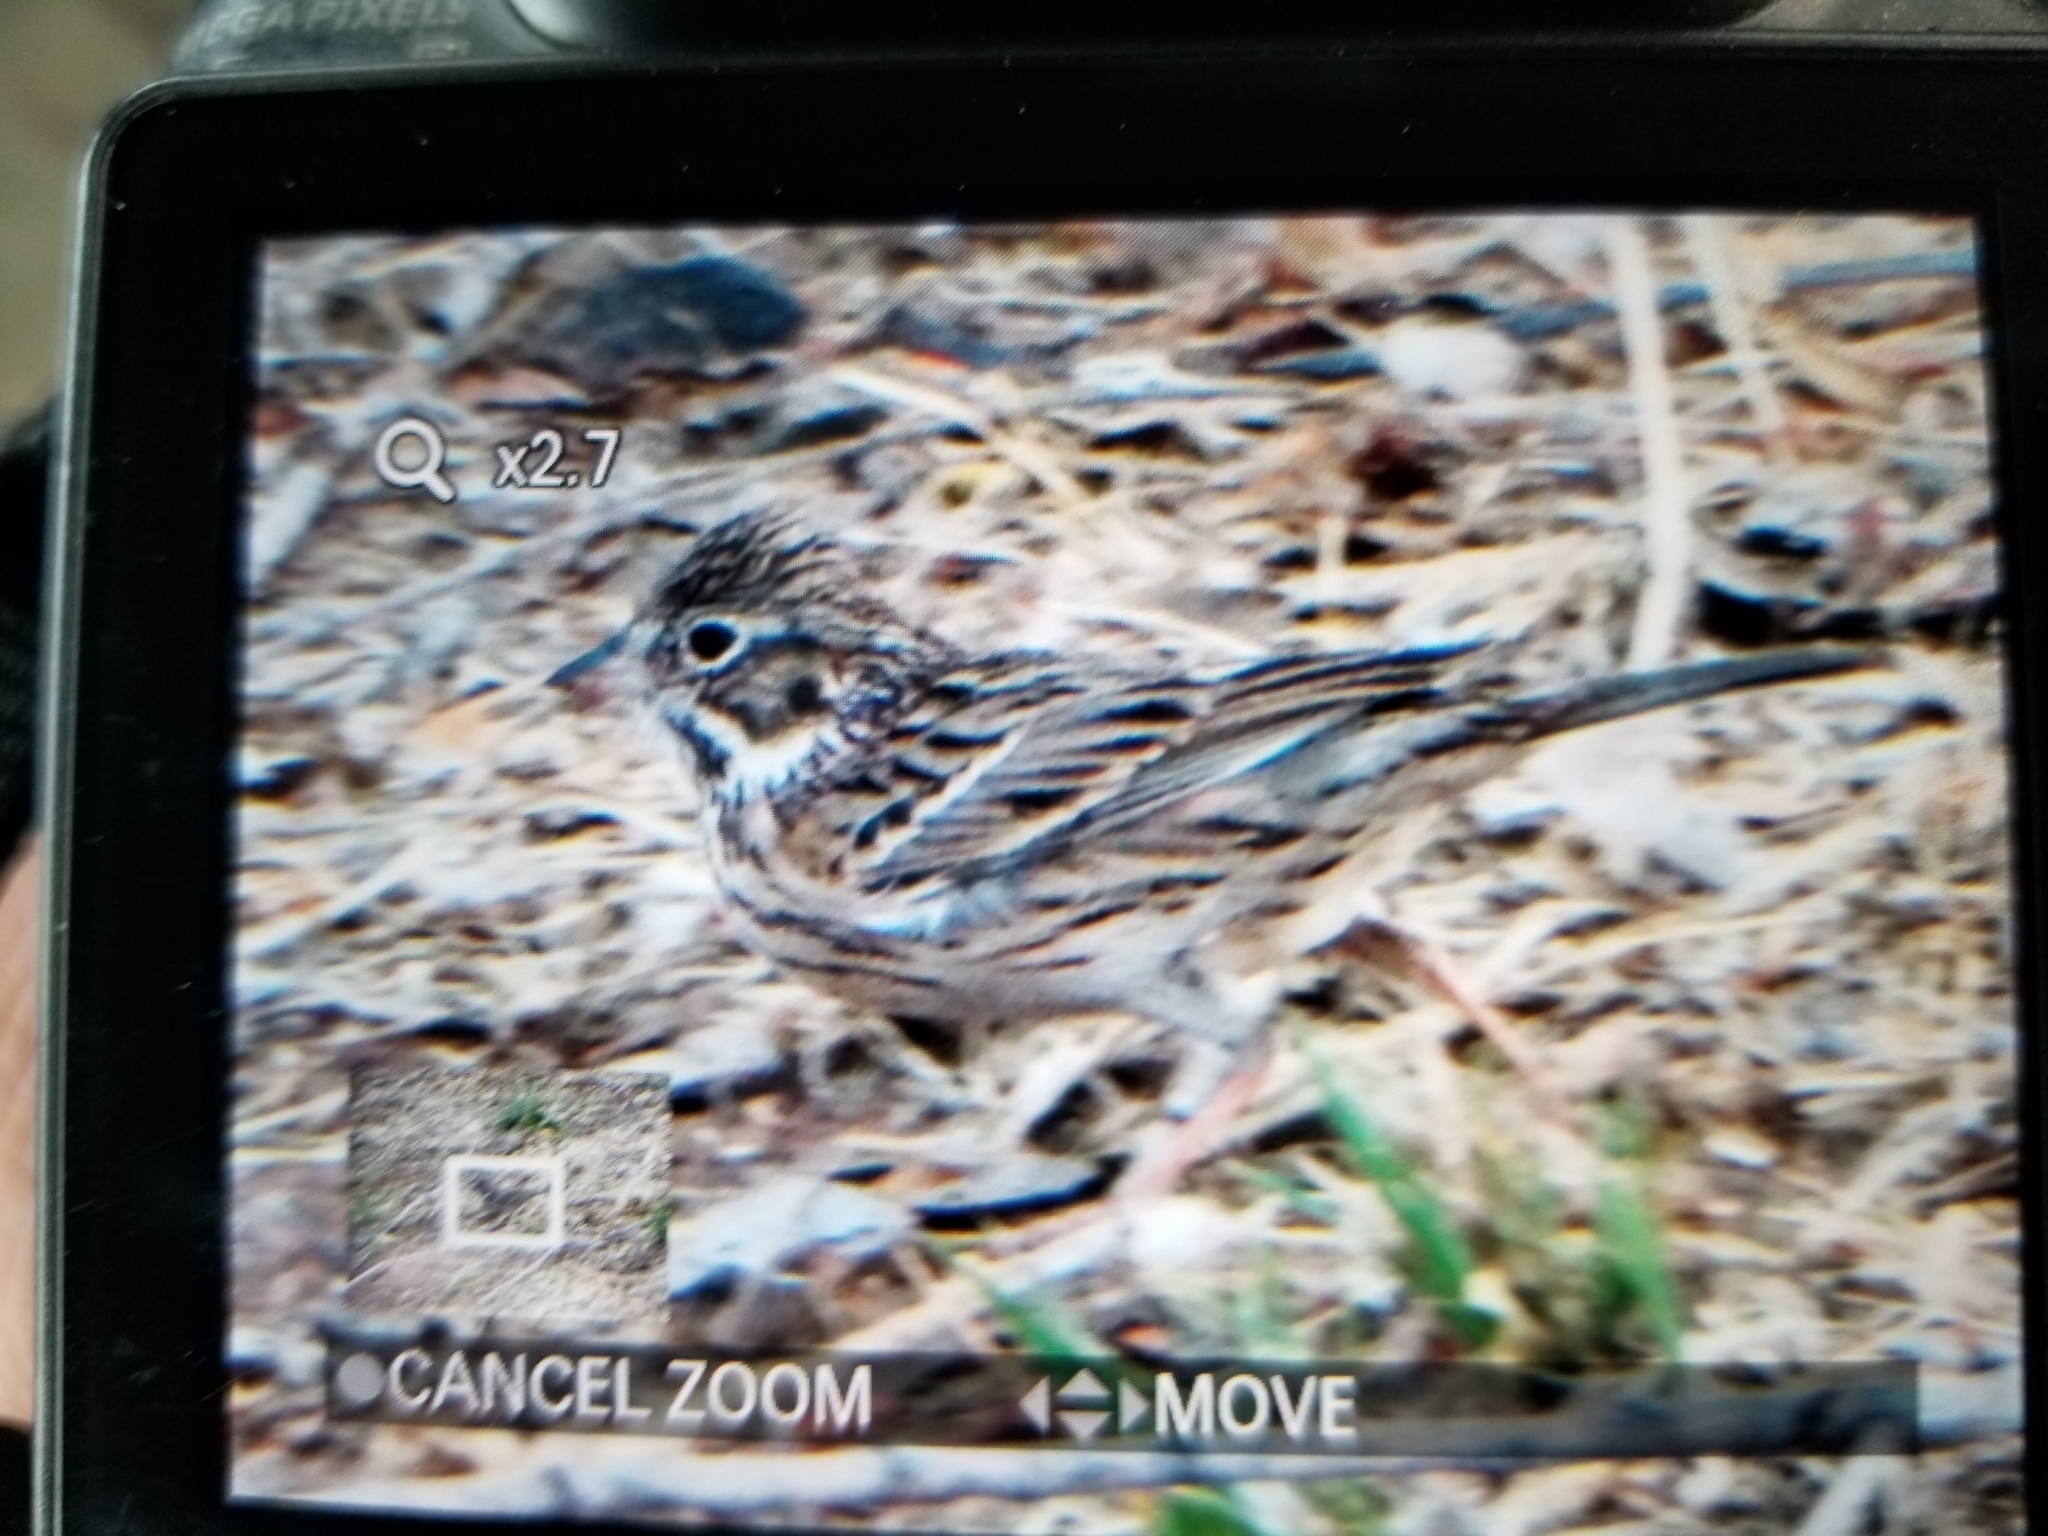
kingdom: Animalia
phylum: Chordata
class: Aves
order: Passeriformes
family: Passerellidae
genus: Pooecetes
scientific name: Pooecetes gramineus
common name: Vesper sparrow
